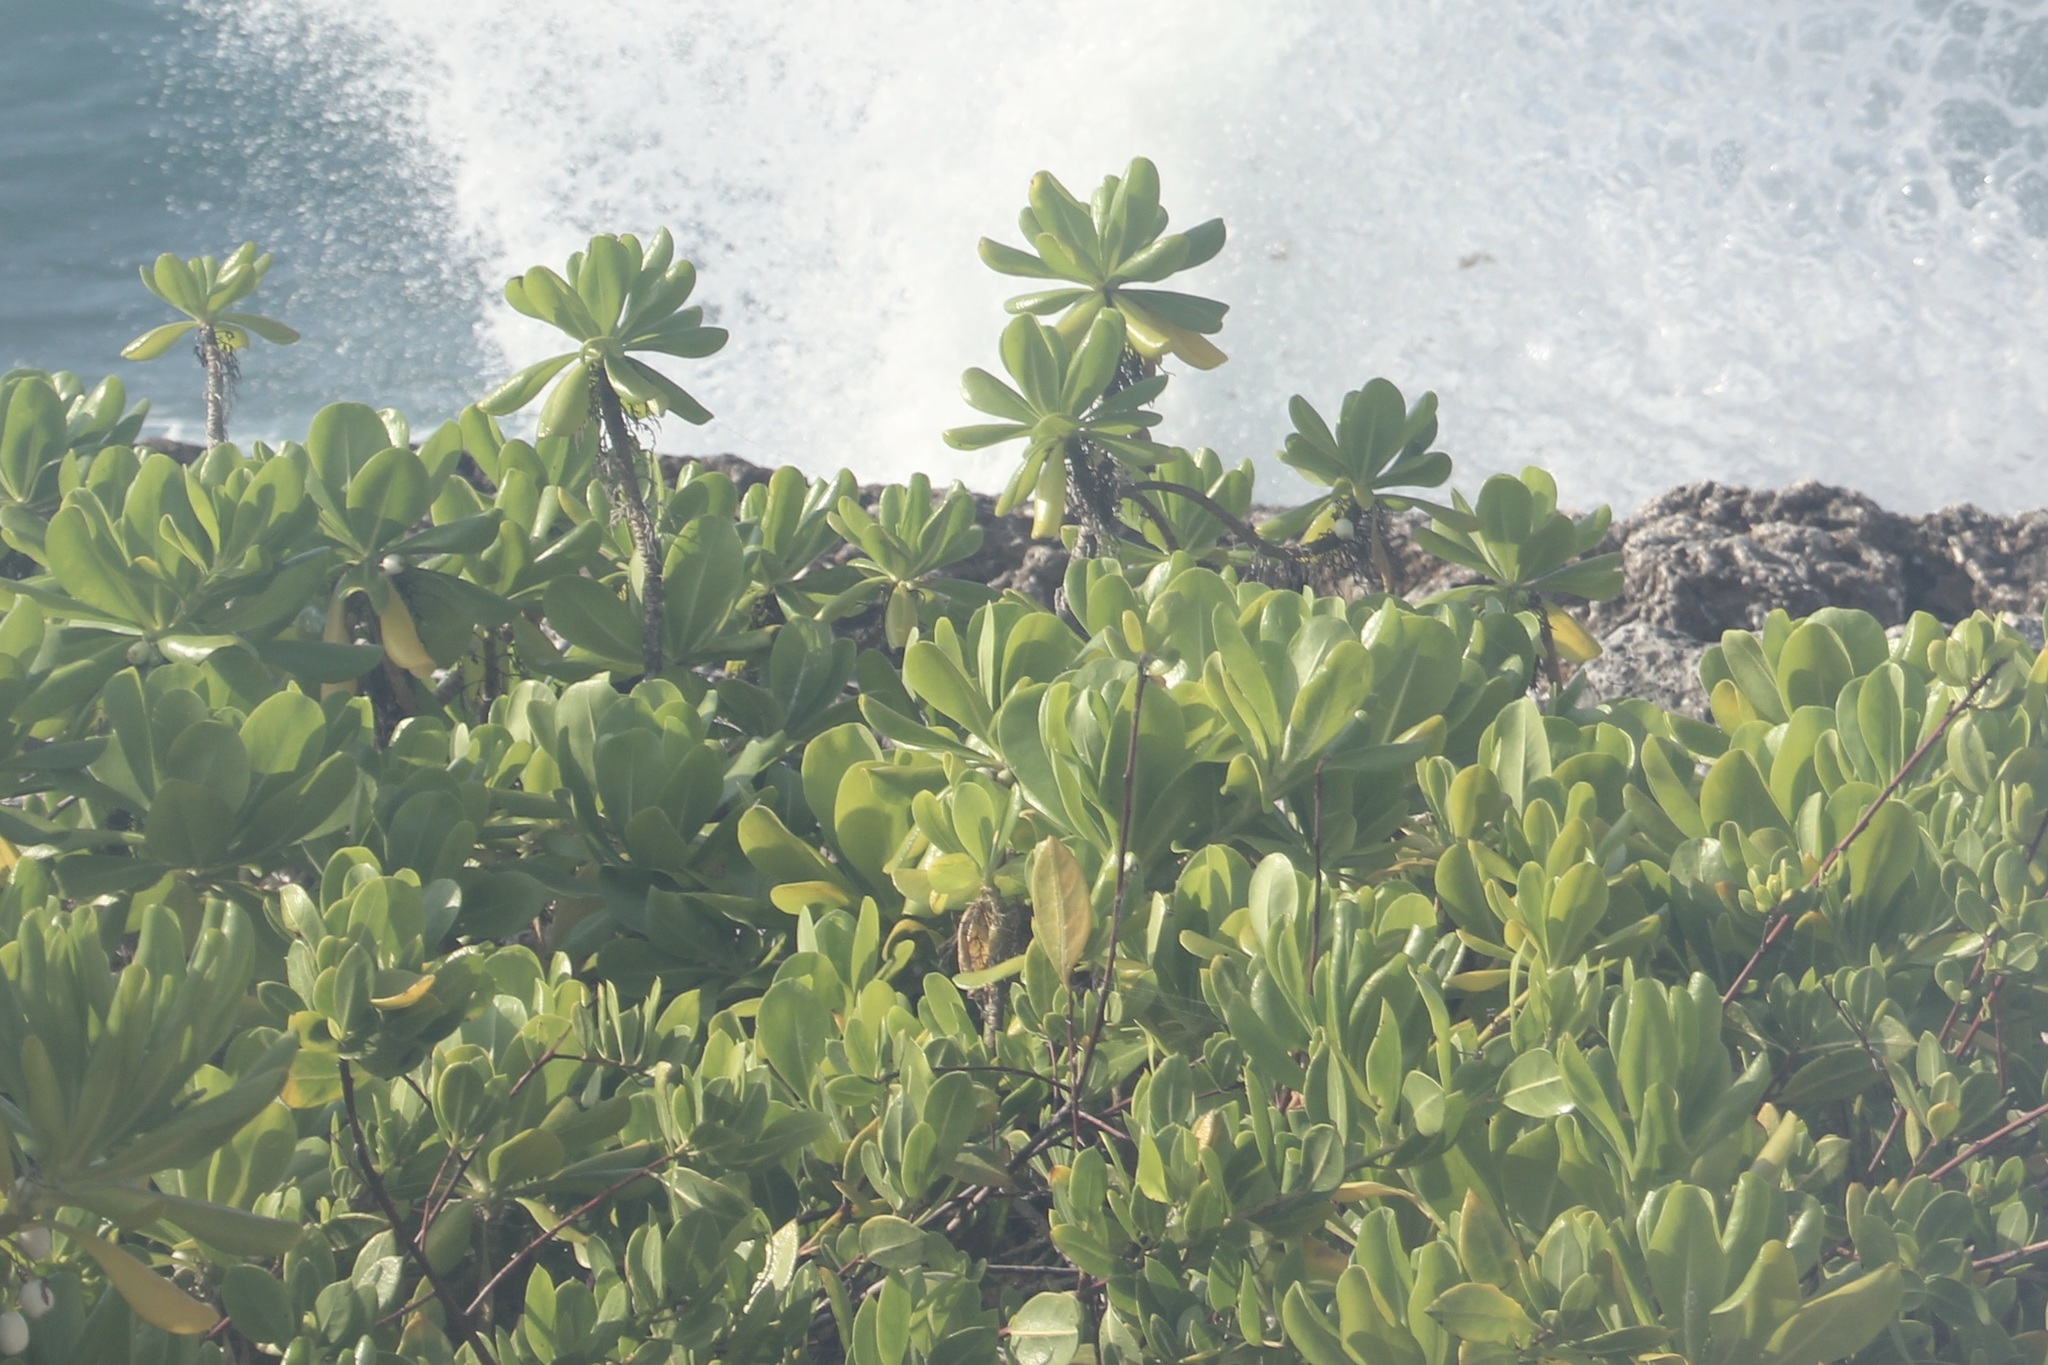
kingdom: Plantae
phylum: Tracheophyta
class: Magnoliopsida
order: Asterales
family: Goodeniaceae
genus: Scaevola
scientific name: Scaevola taccada
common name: Sea lettucetree
